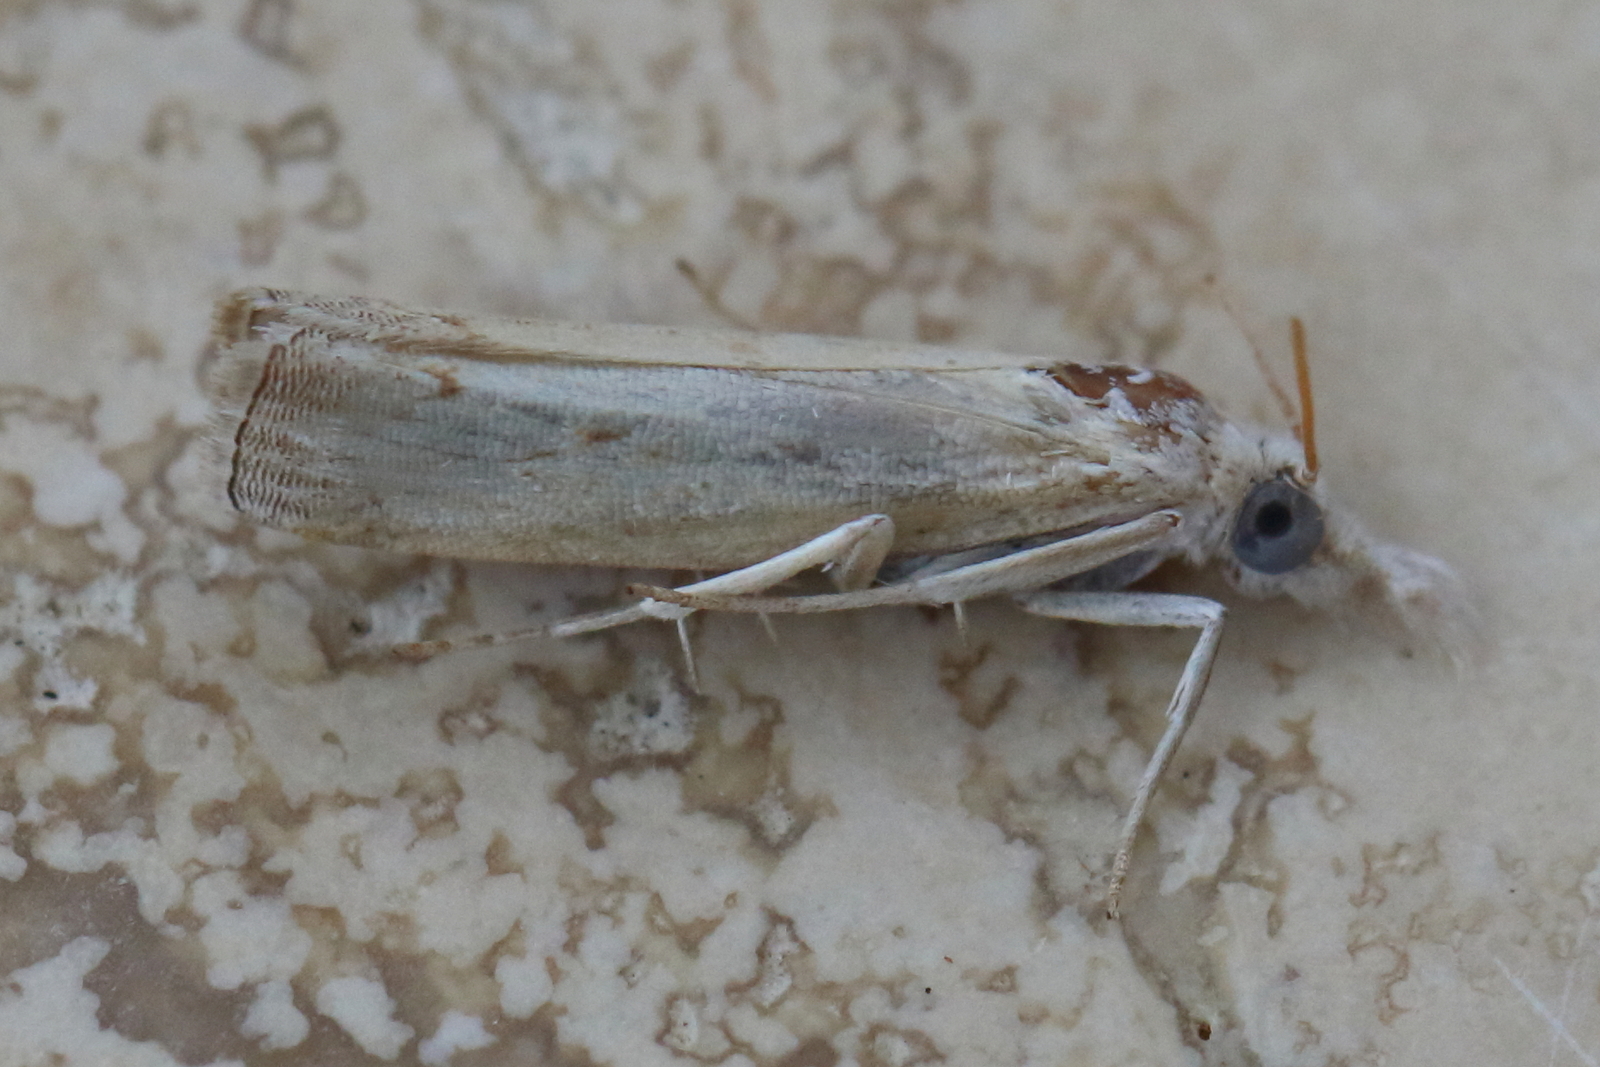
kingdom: Animalia
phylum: Arthropoda
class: Insecta
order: Lepidoptera
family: Crambidae
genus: Culladia
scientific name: Culladia cuneiferellus
